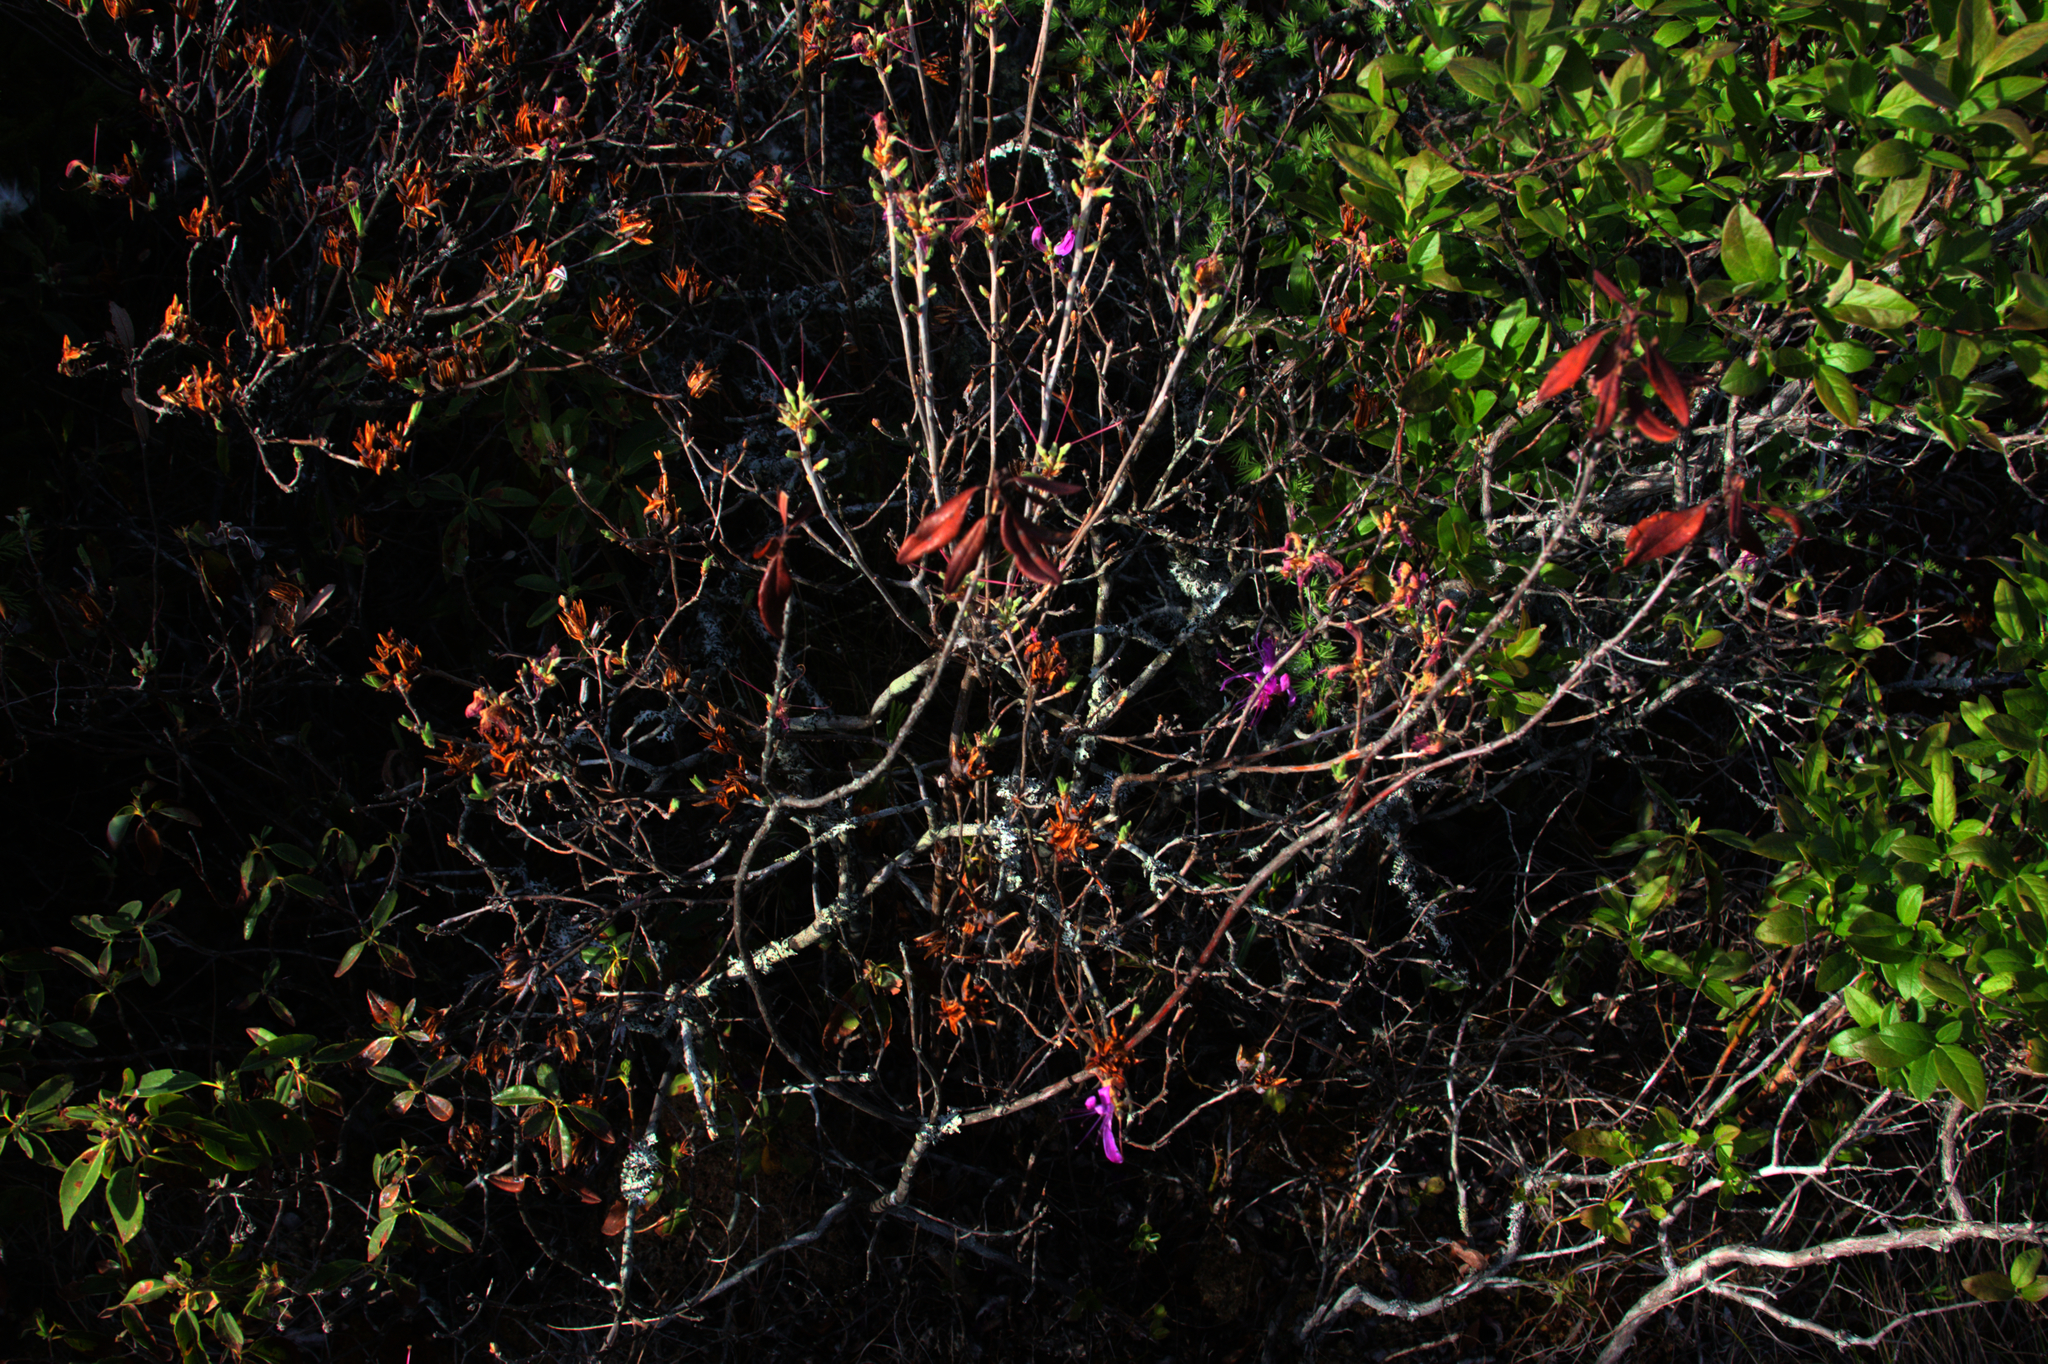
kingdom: Plantae
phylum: Tracheophyta
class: Magnoliopsida
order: Ericales
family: Ericaceae
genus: Kalmia
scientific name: Kalmia angustifolia
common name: Sheep-laurel
